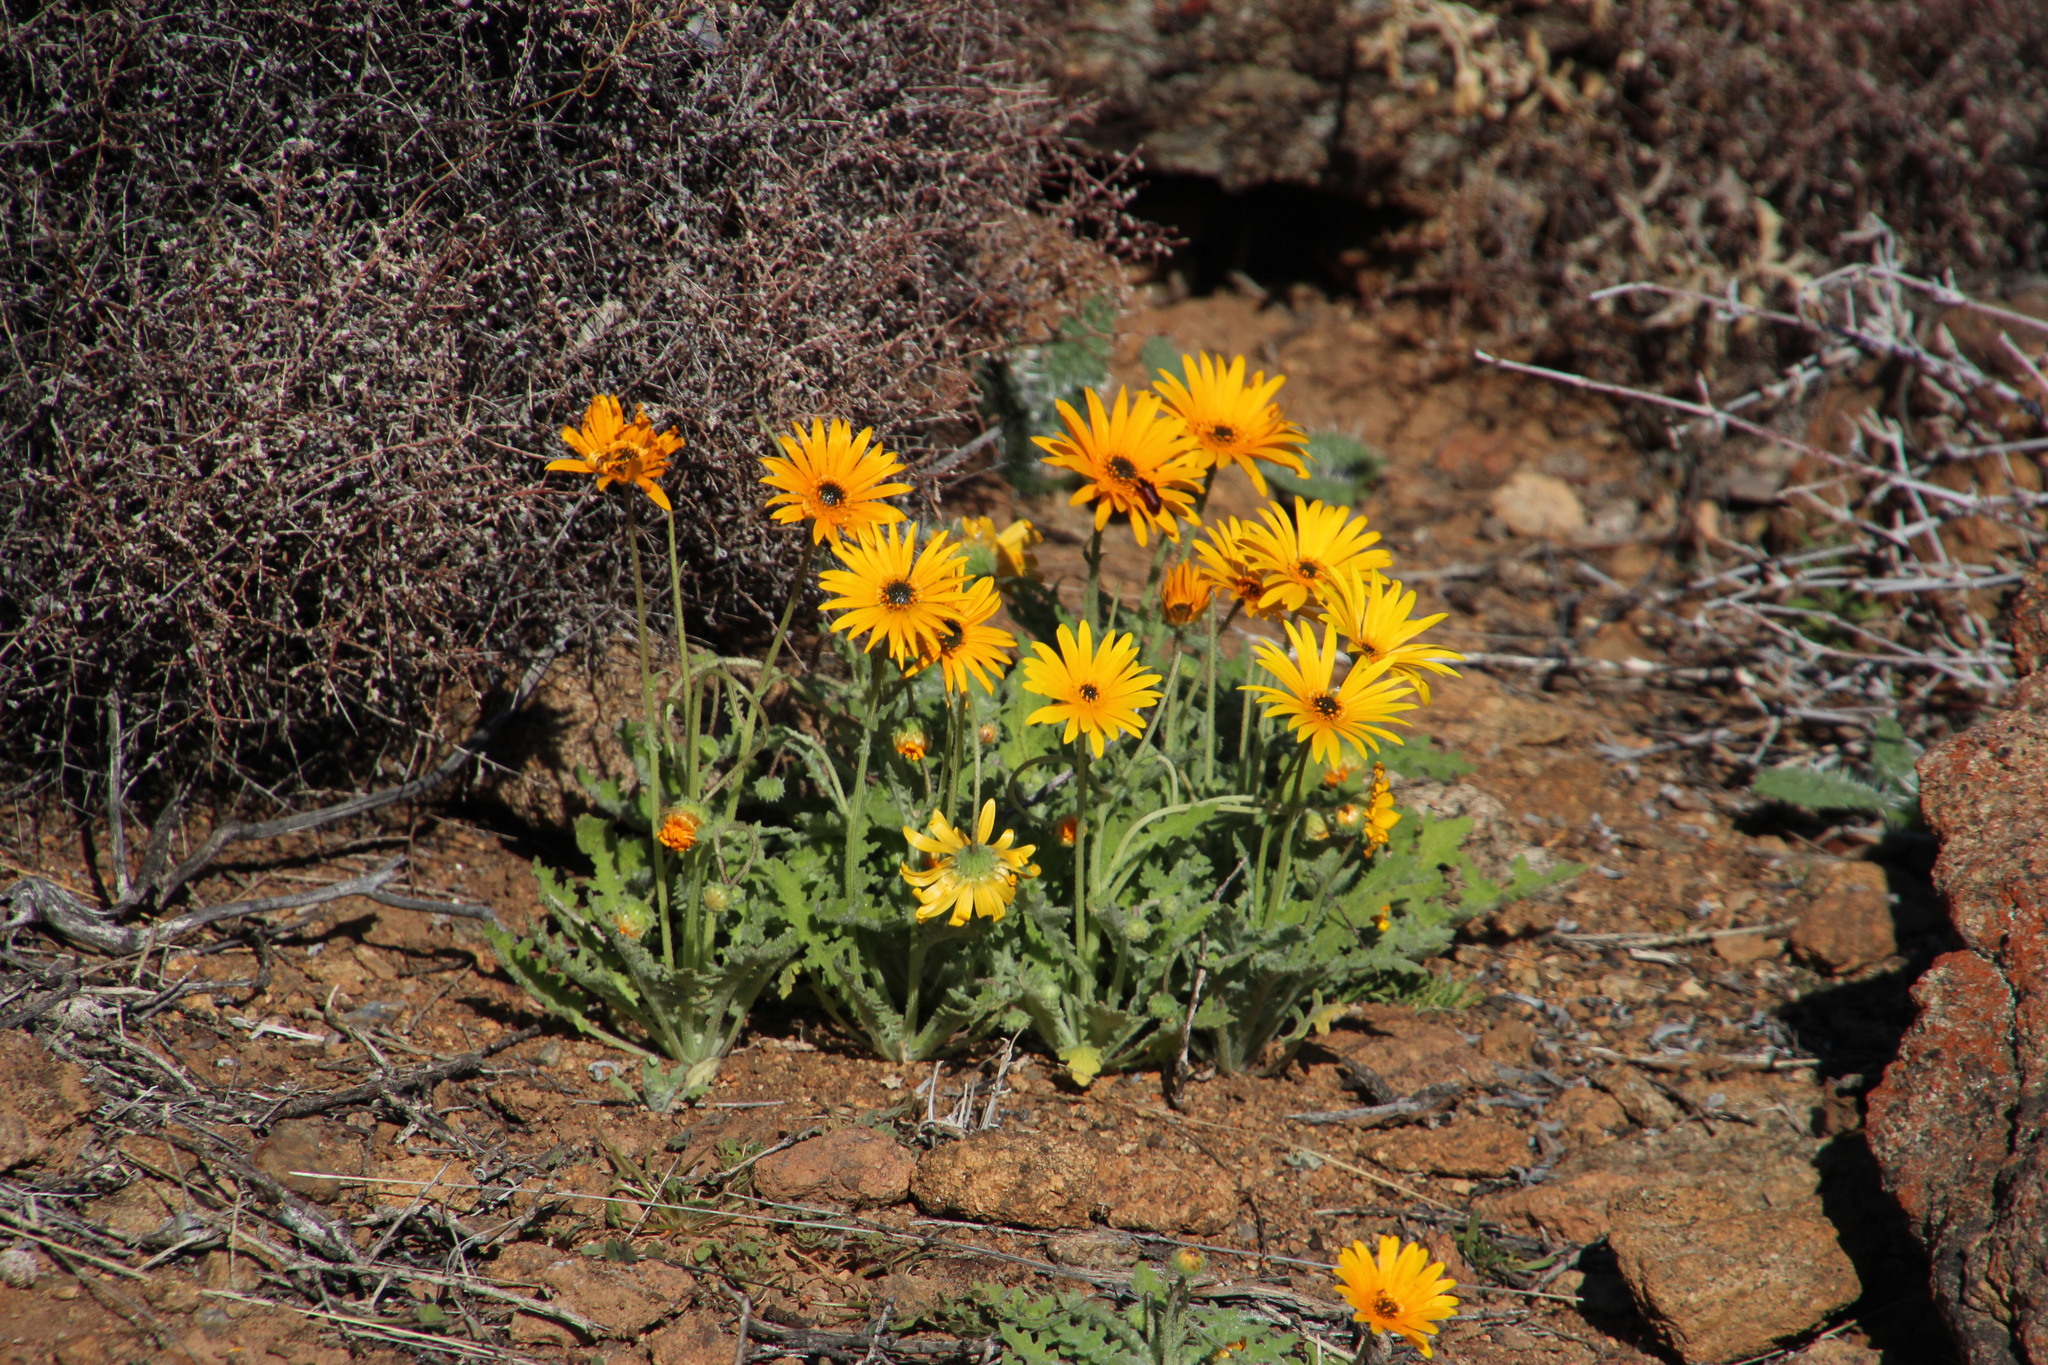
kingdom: Plantae
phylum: Tracheophyta
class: Magnoliopsida
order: Asterales
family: Asteraceae
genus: Arctotis
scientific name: Arctotis fastuosa
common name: Monarch of the veld
